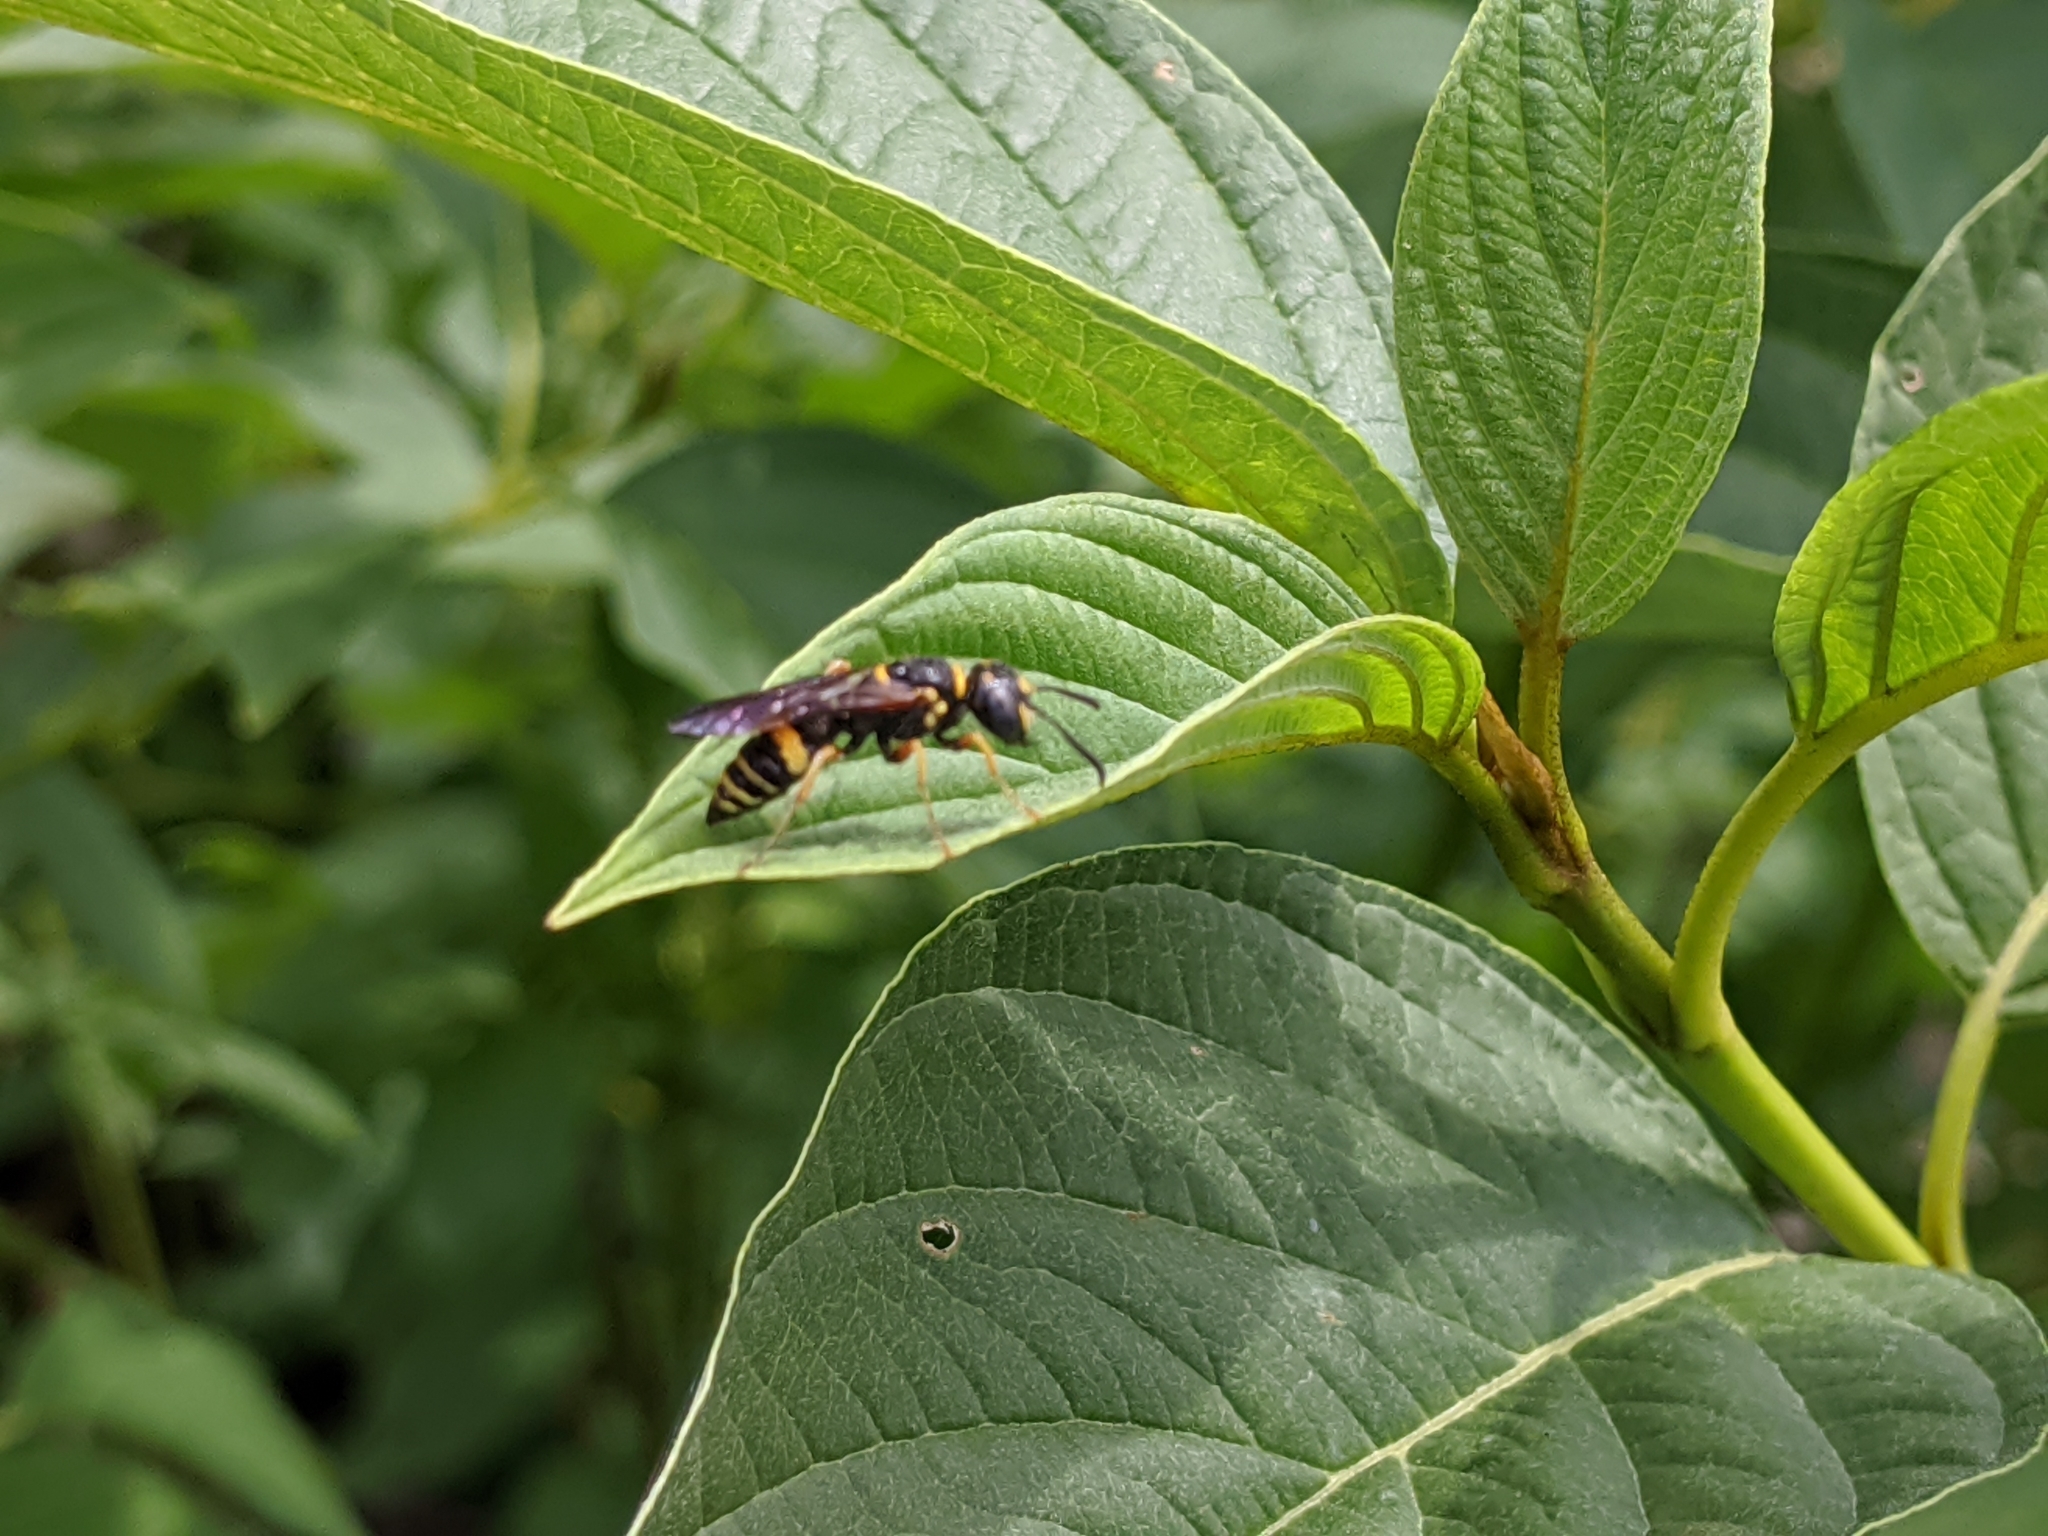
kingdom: Animalia
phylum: Arthropoda
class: Insecta
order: Hymenoptera
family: Crabronidae
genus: Philanthus
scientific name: Philanthus gibbosus
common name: Humped beewolf
